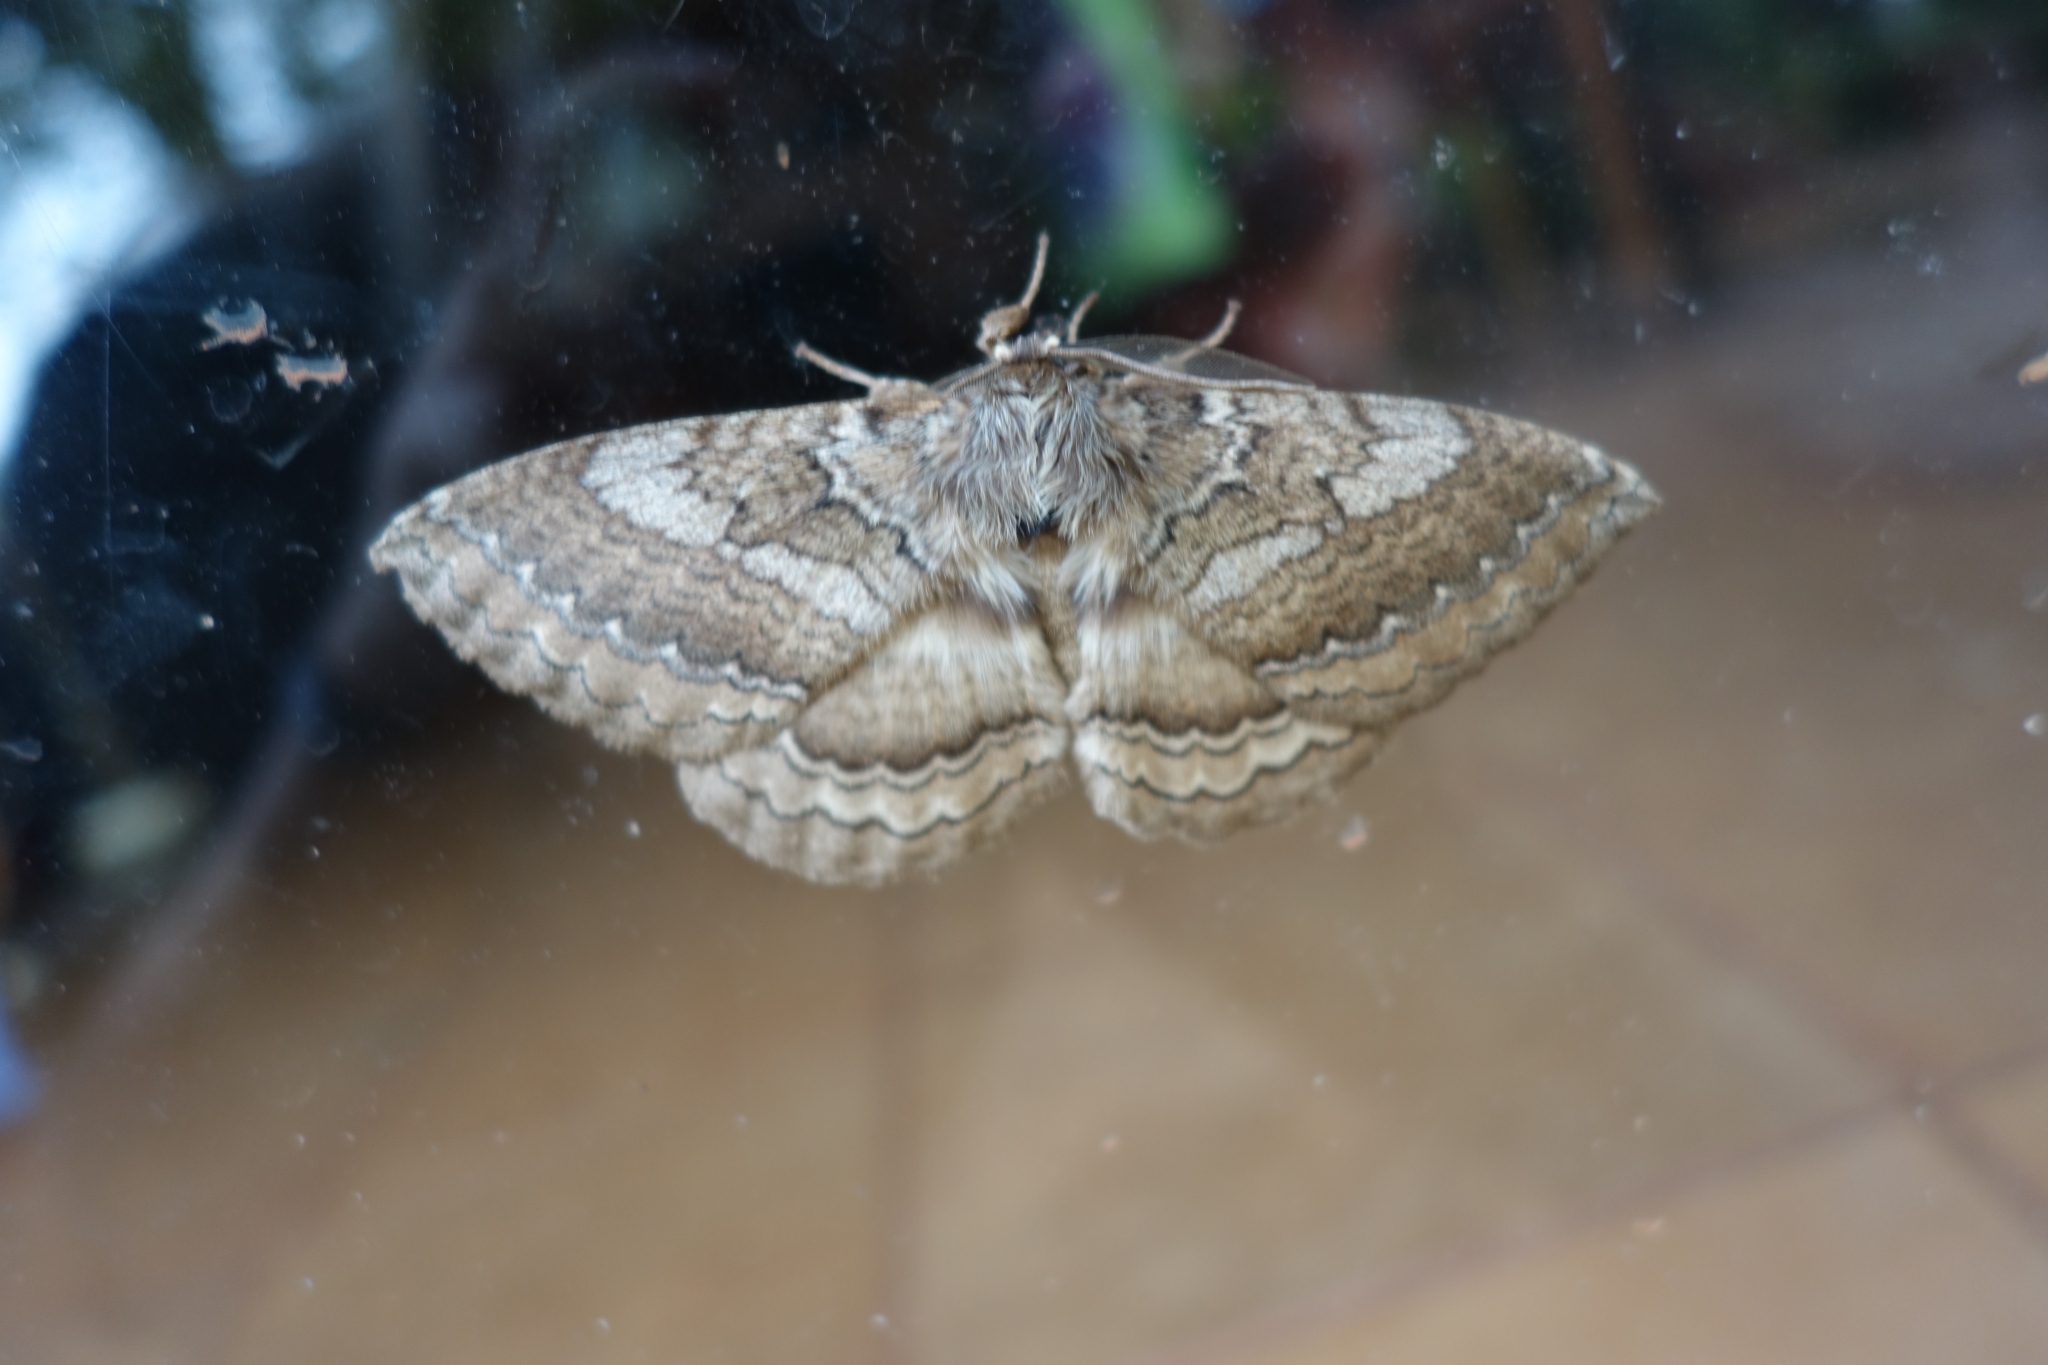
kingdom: Animalia
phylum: Arthropoda
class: Insecta
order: Lepidoptera
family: Eupterotidae
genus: Striphnopteryx
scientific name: Striphnopteryx edulis
